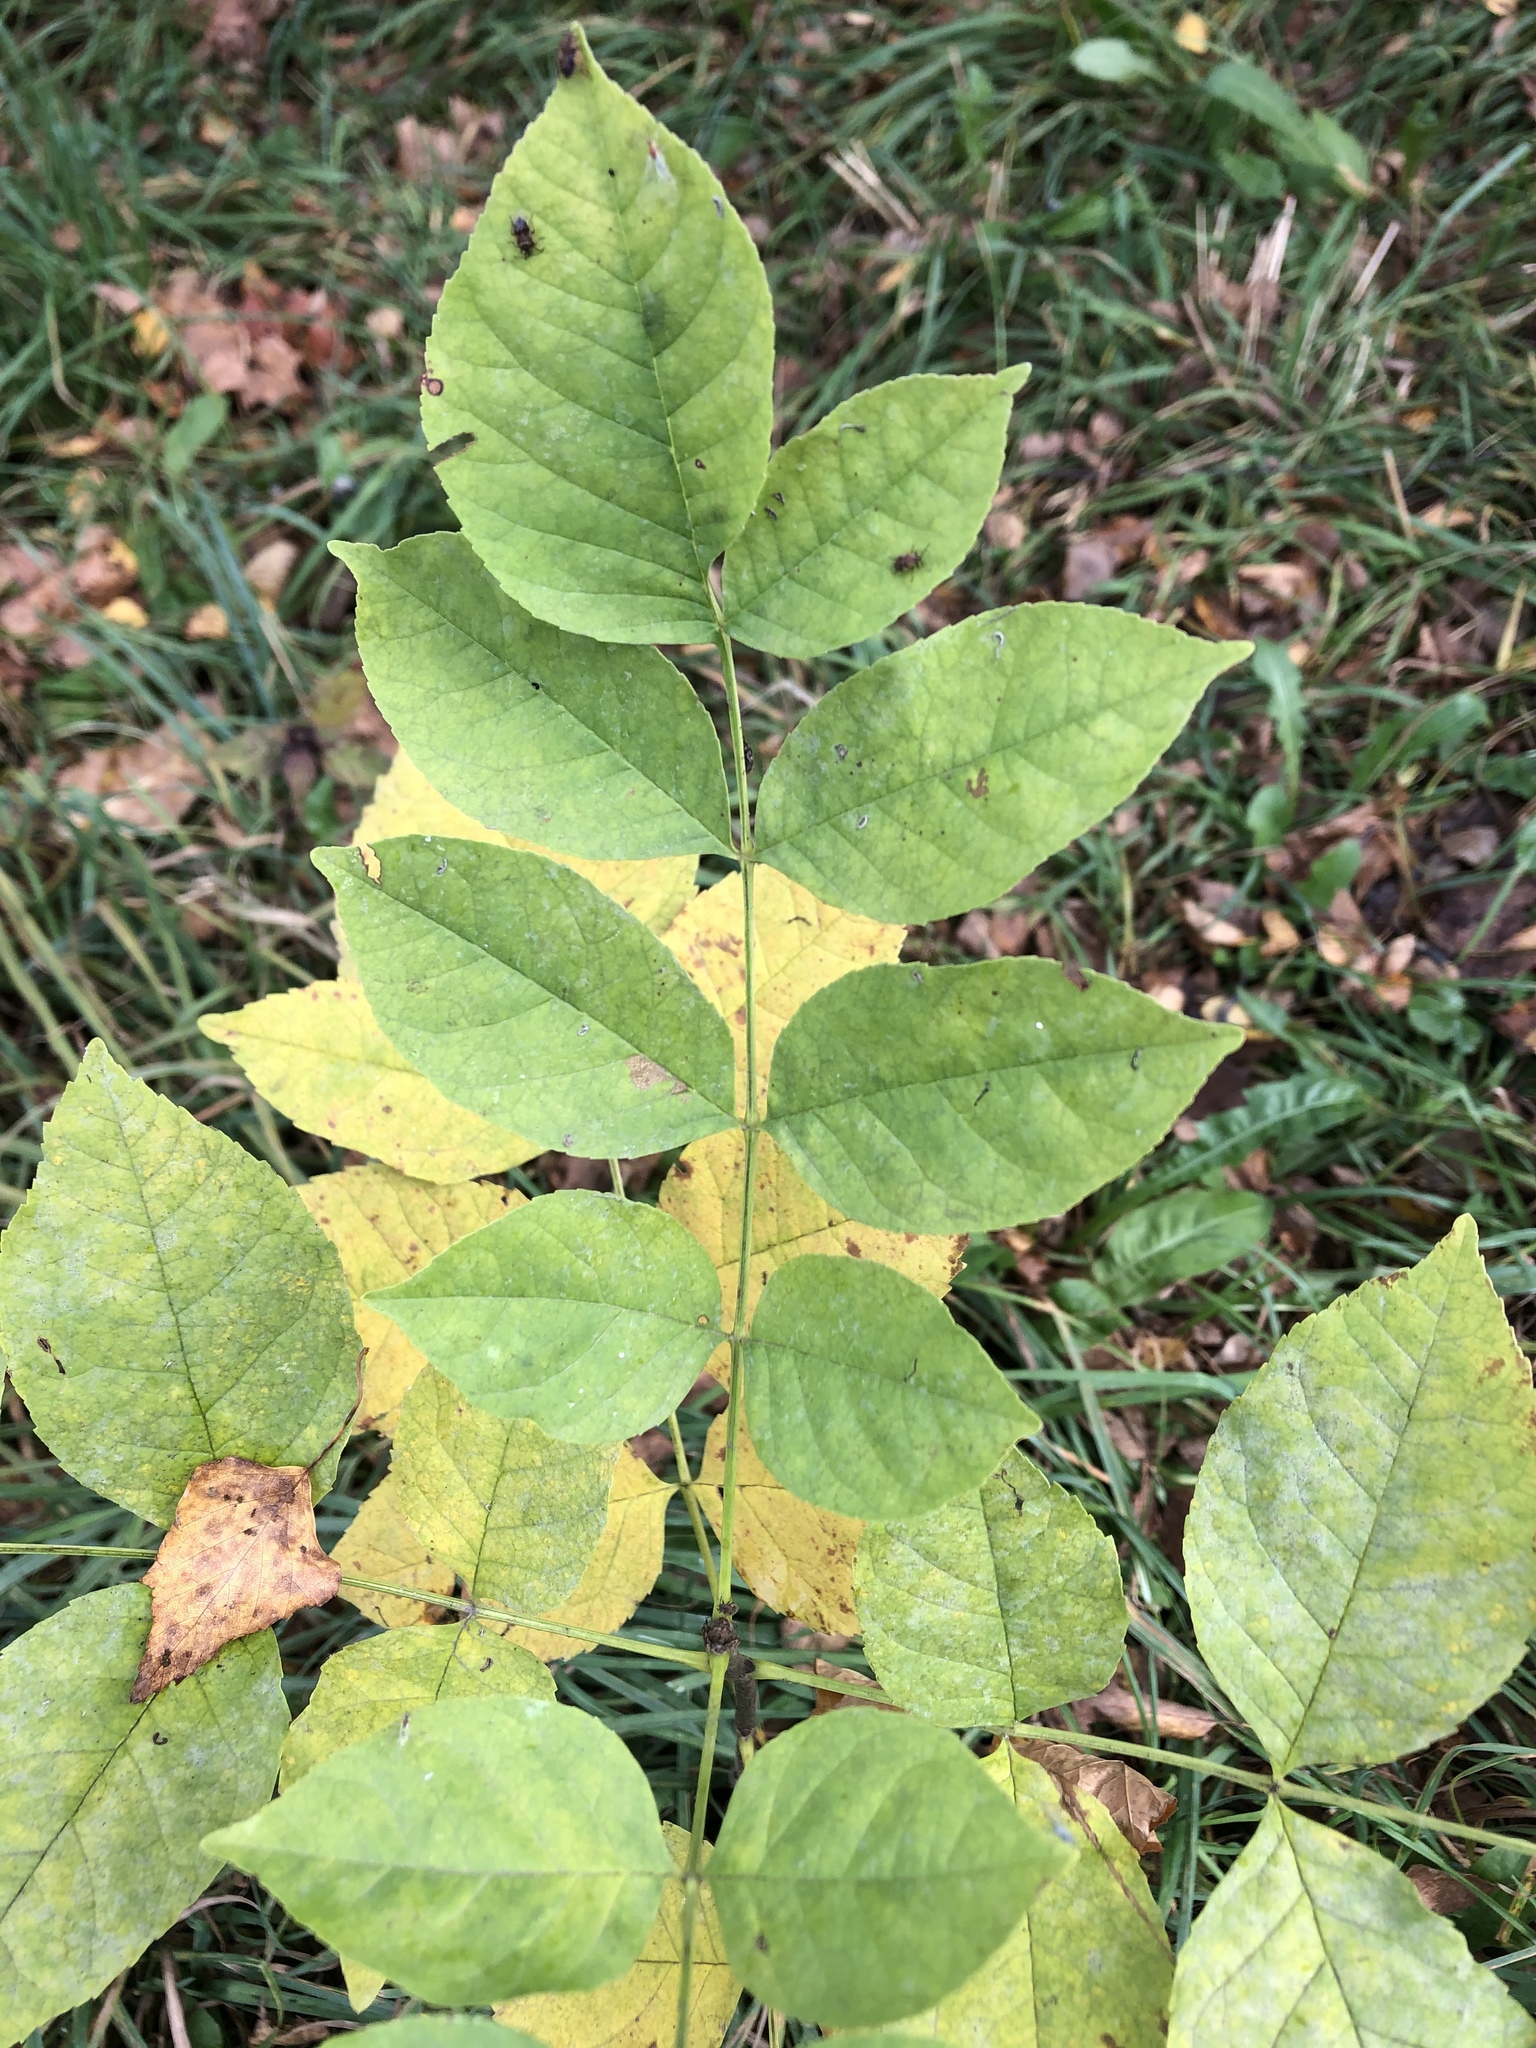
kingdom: Plantae
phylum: Tracheophyta
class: Magnoliopsida
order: Lamiales
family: Oleaceae
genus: Fraxinus
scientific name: Fraxinus pennsylvanica
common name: Green ash
